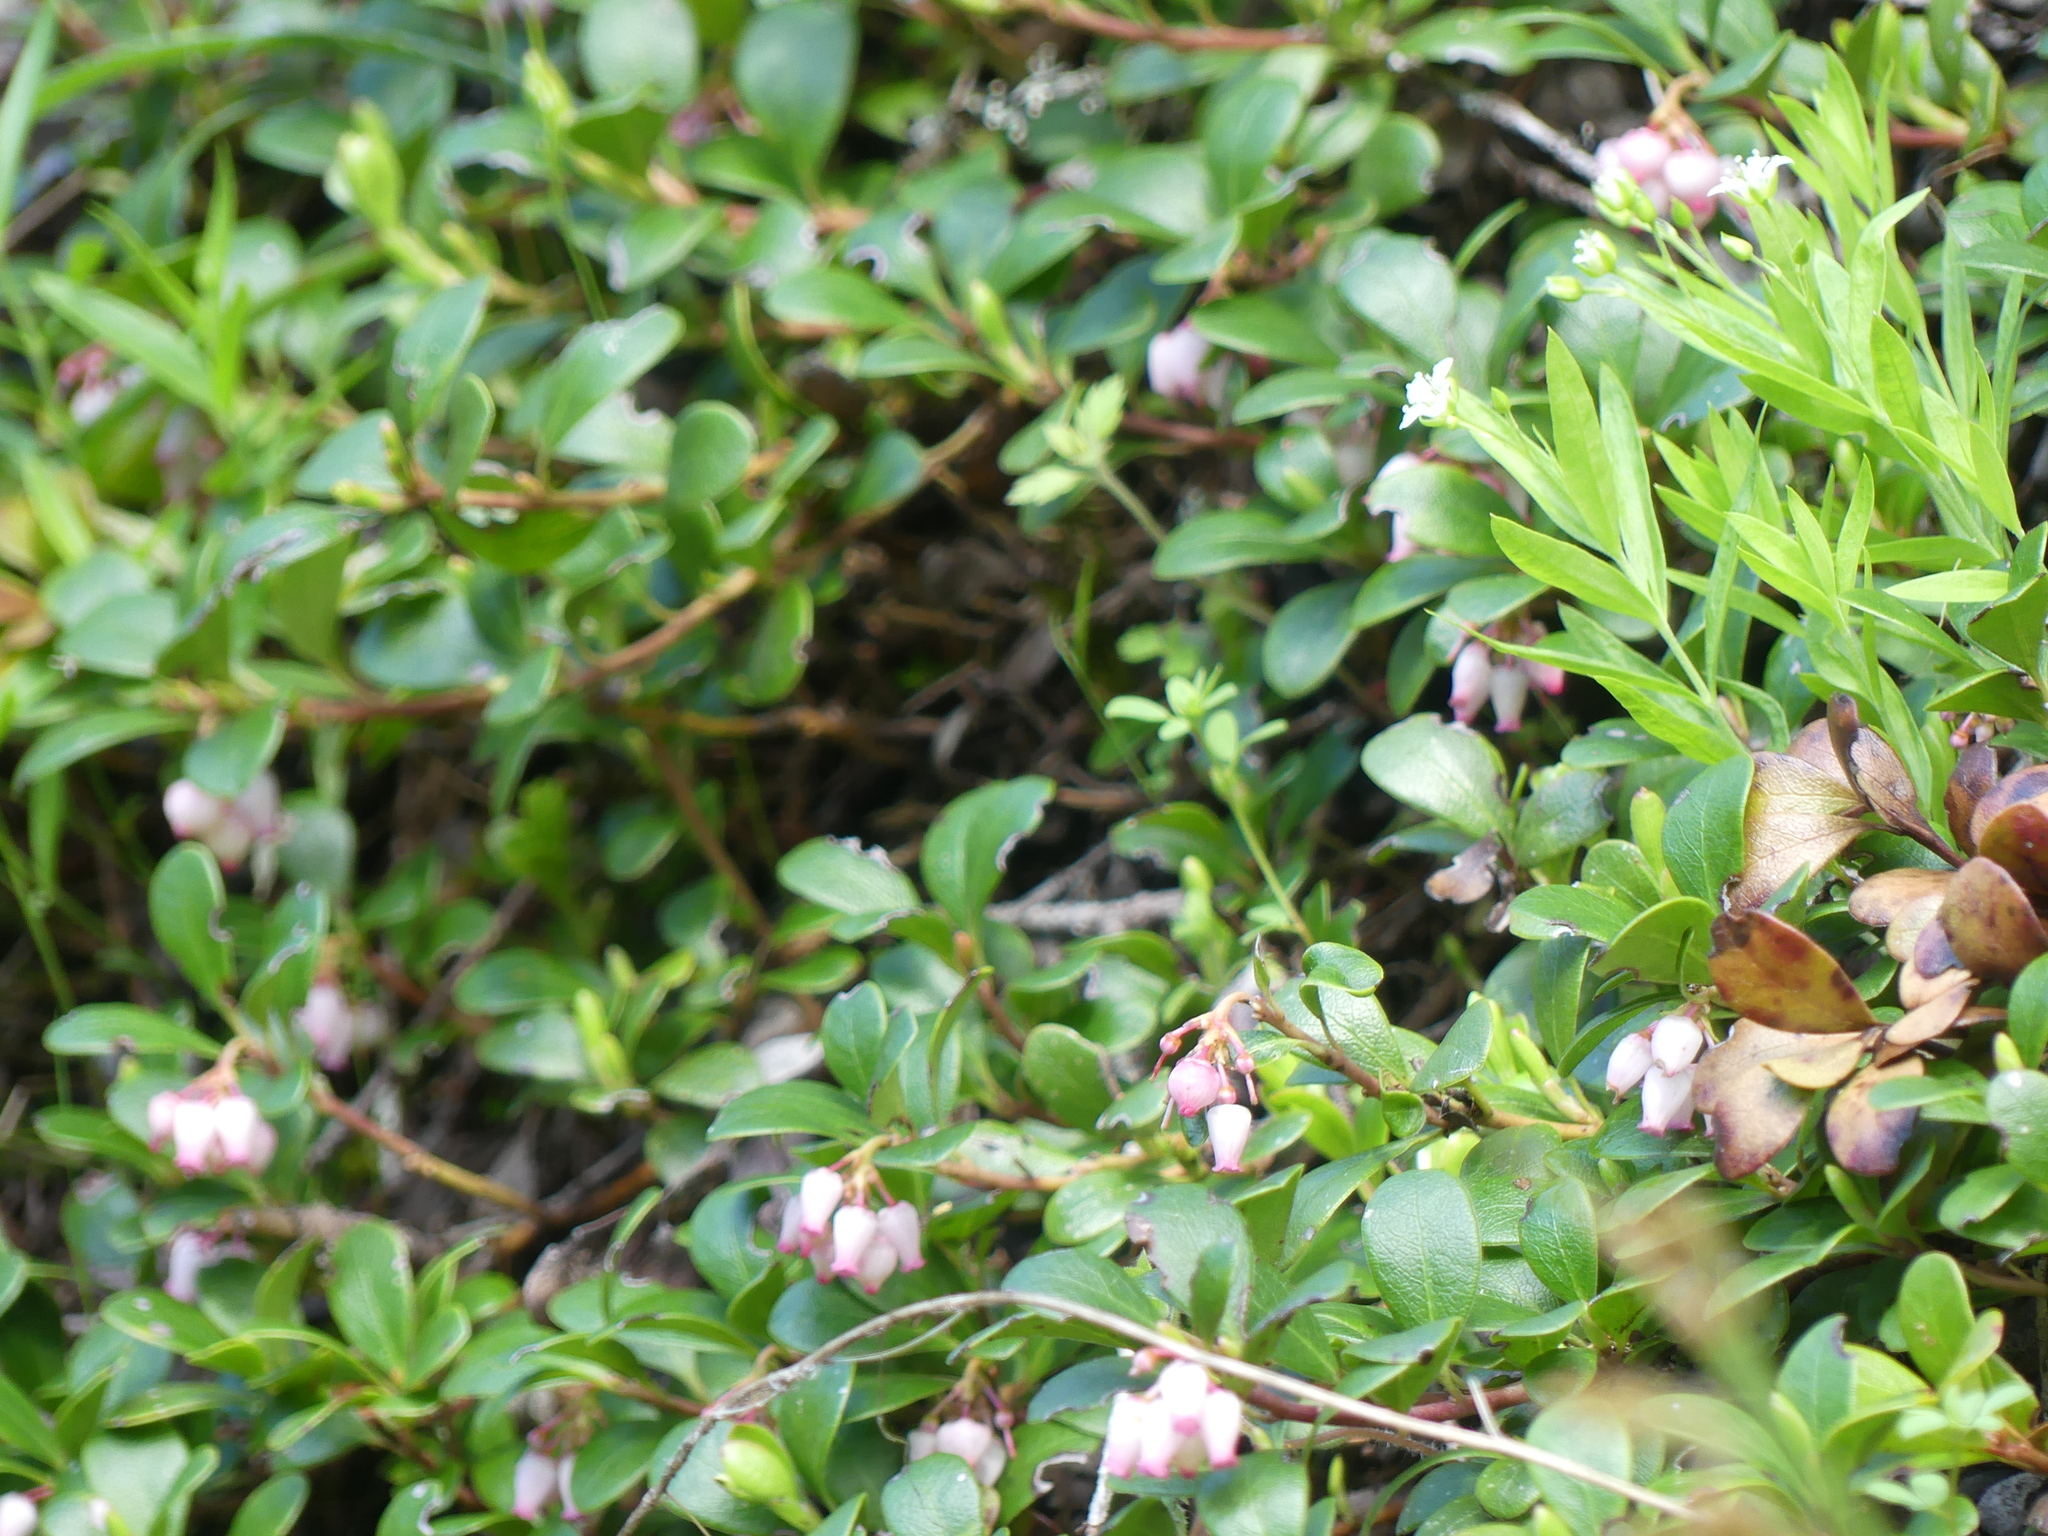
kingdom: Plantae
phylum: Tracheophyta
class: Magnoliopsida
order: Ericales
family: Ericaceae
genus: Arctostaphylos
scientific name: Arctostaphylos uva-ursi
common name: Bearberry
